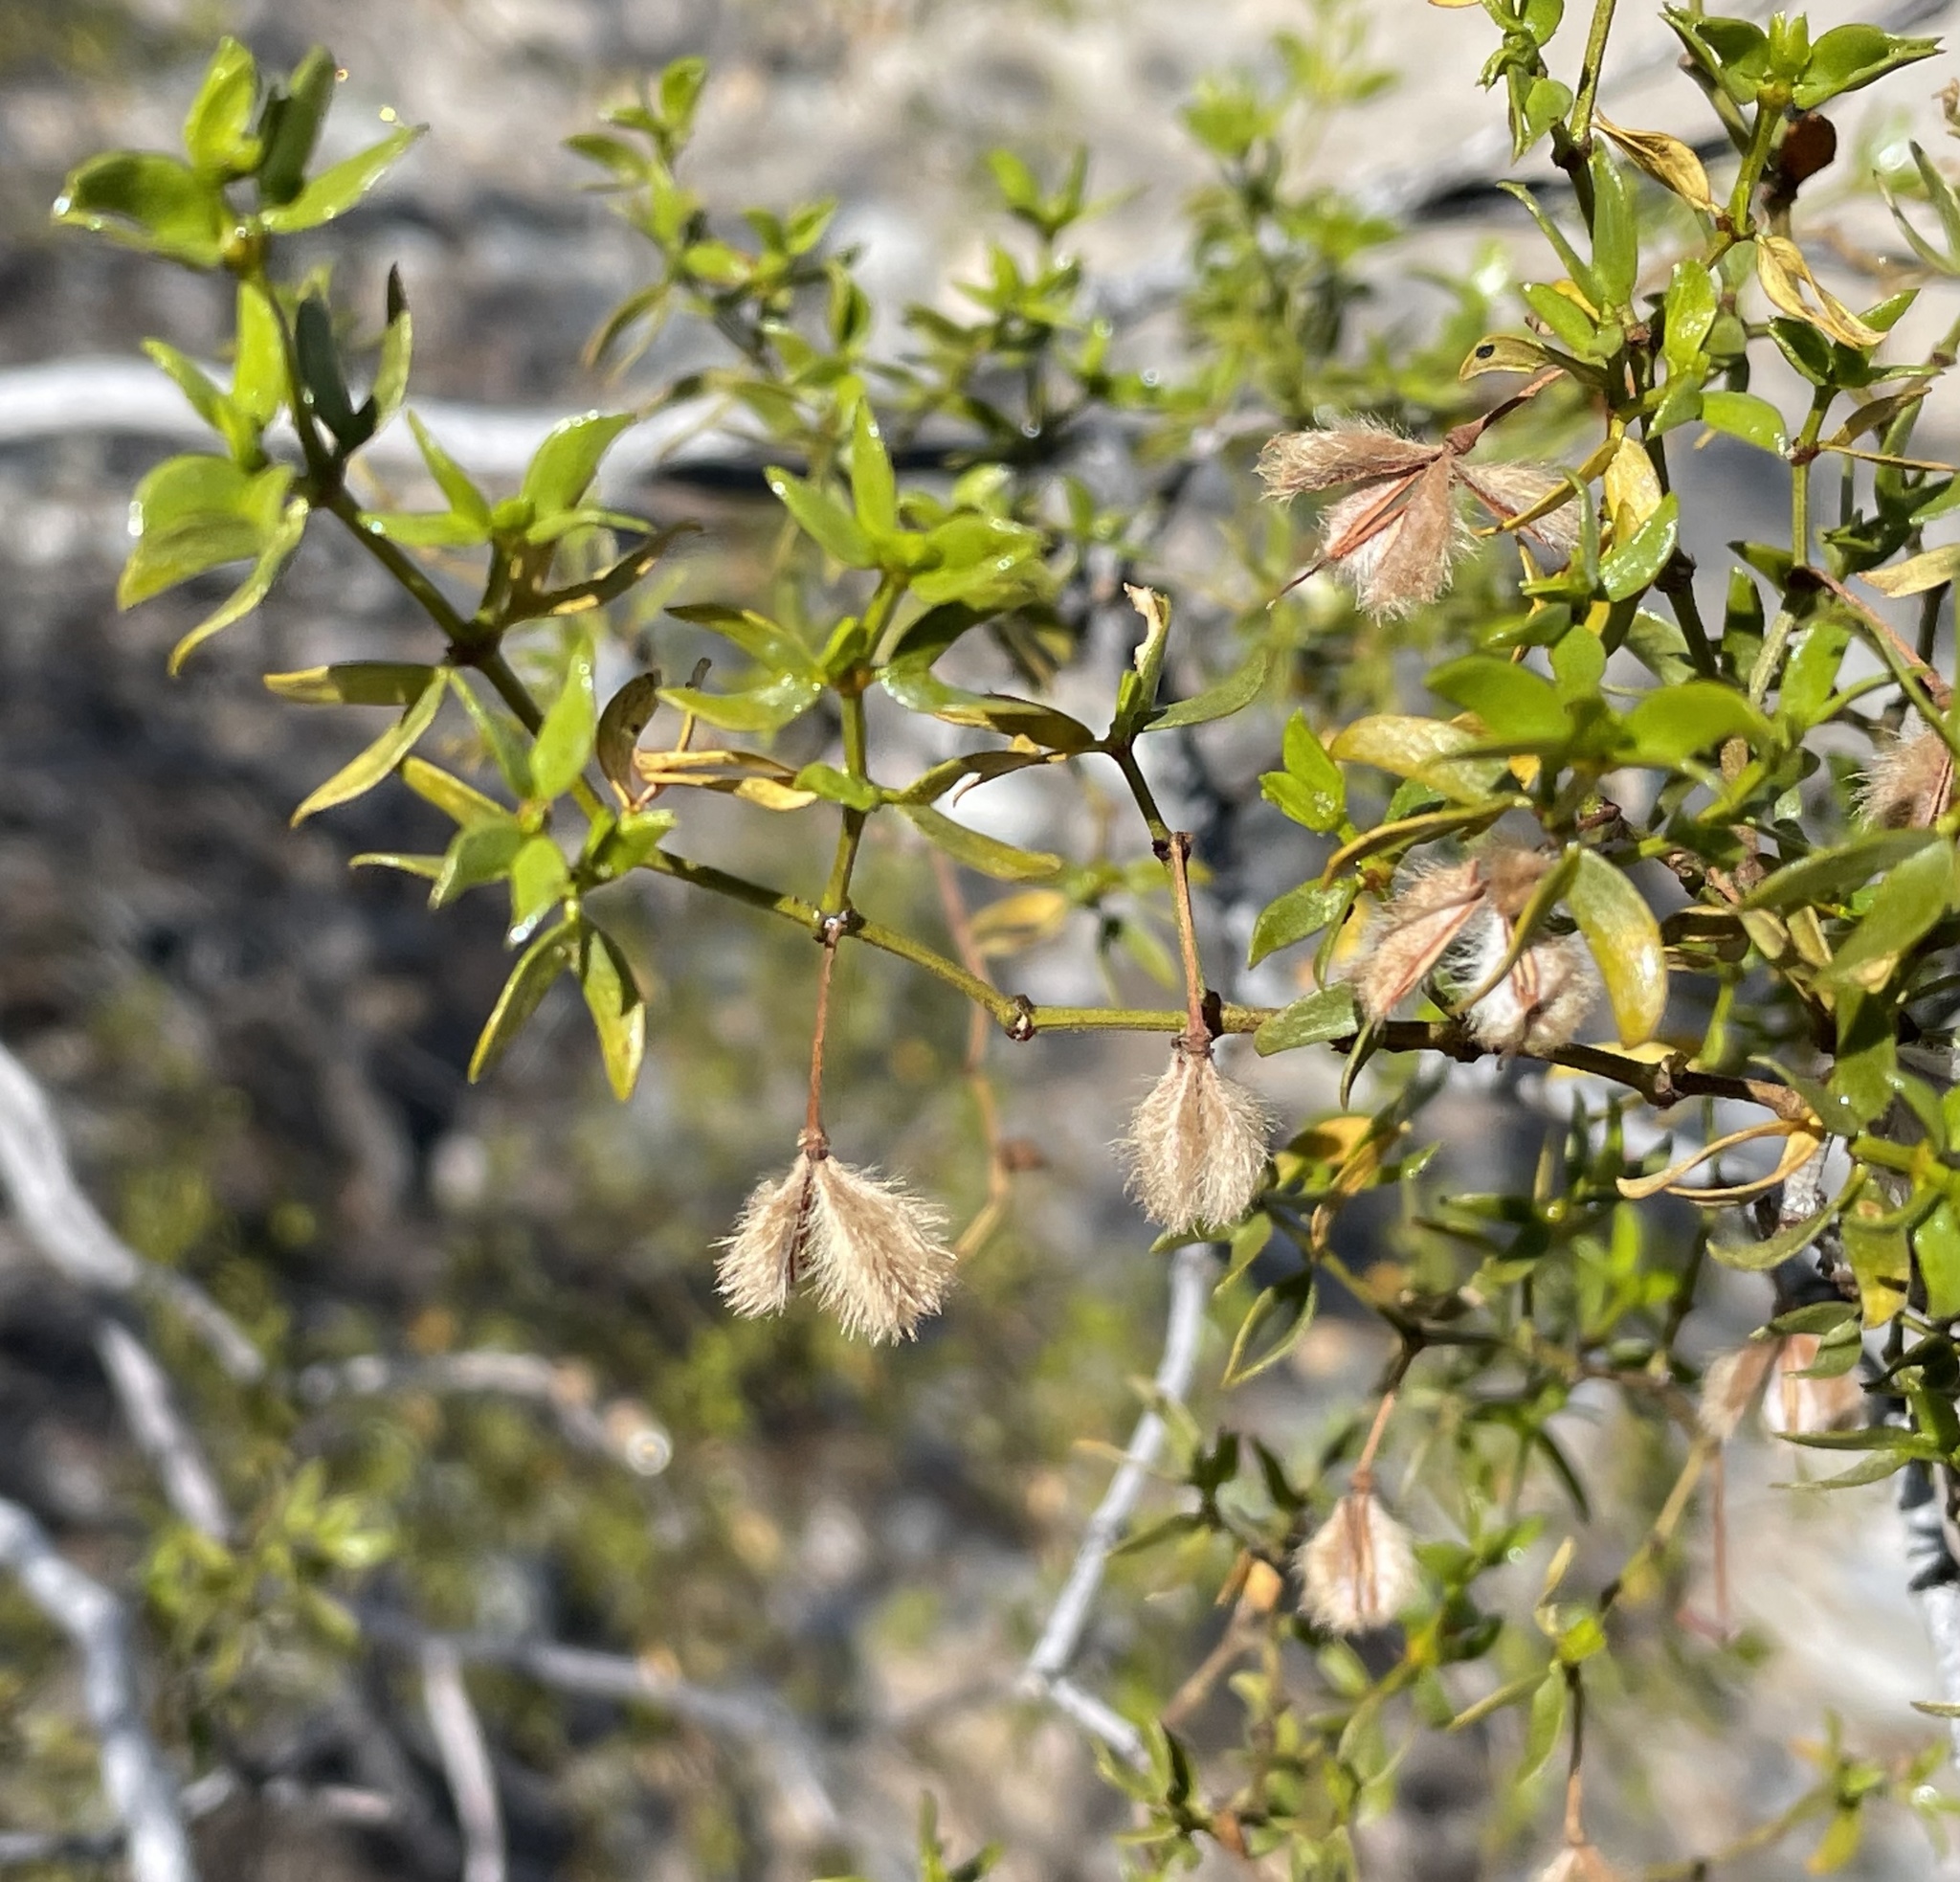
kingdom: Plantae
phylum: Tracheophyta
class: Magnoliopsida
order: Zygophyllales
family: Zygophyllaceae
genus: Larrea
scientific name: Larrea tridentata
